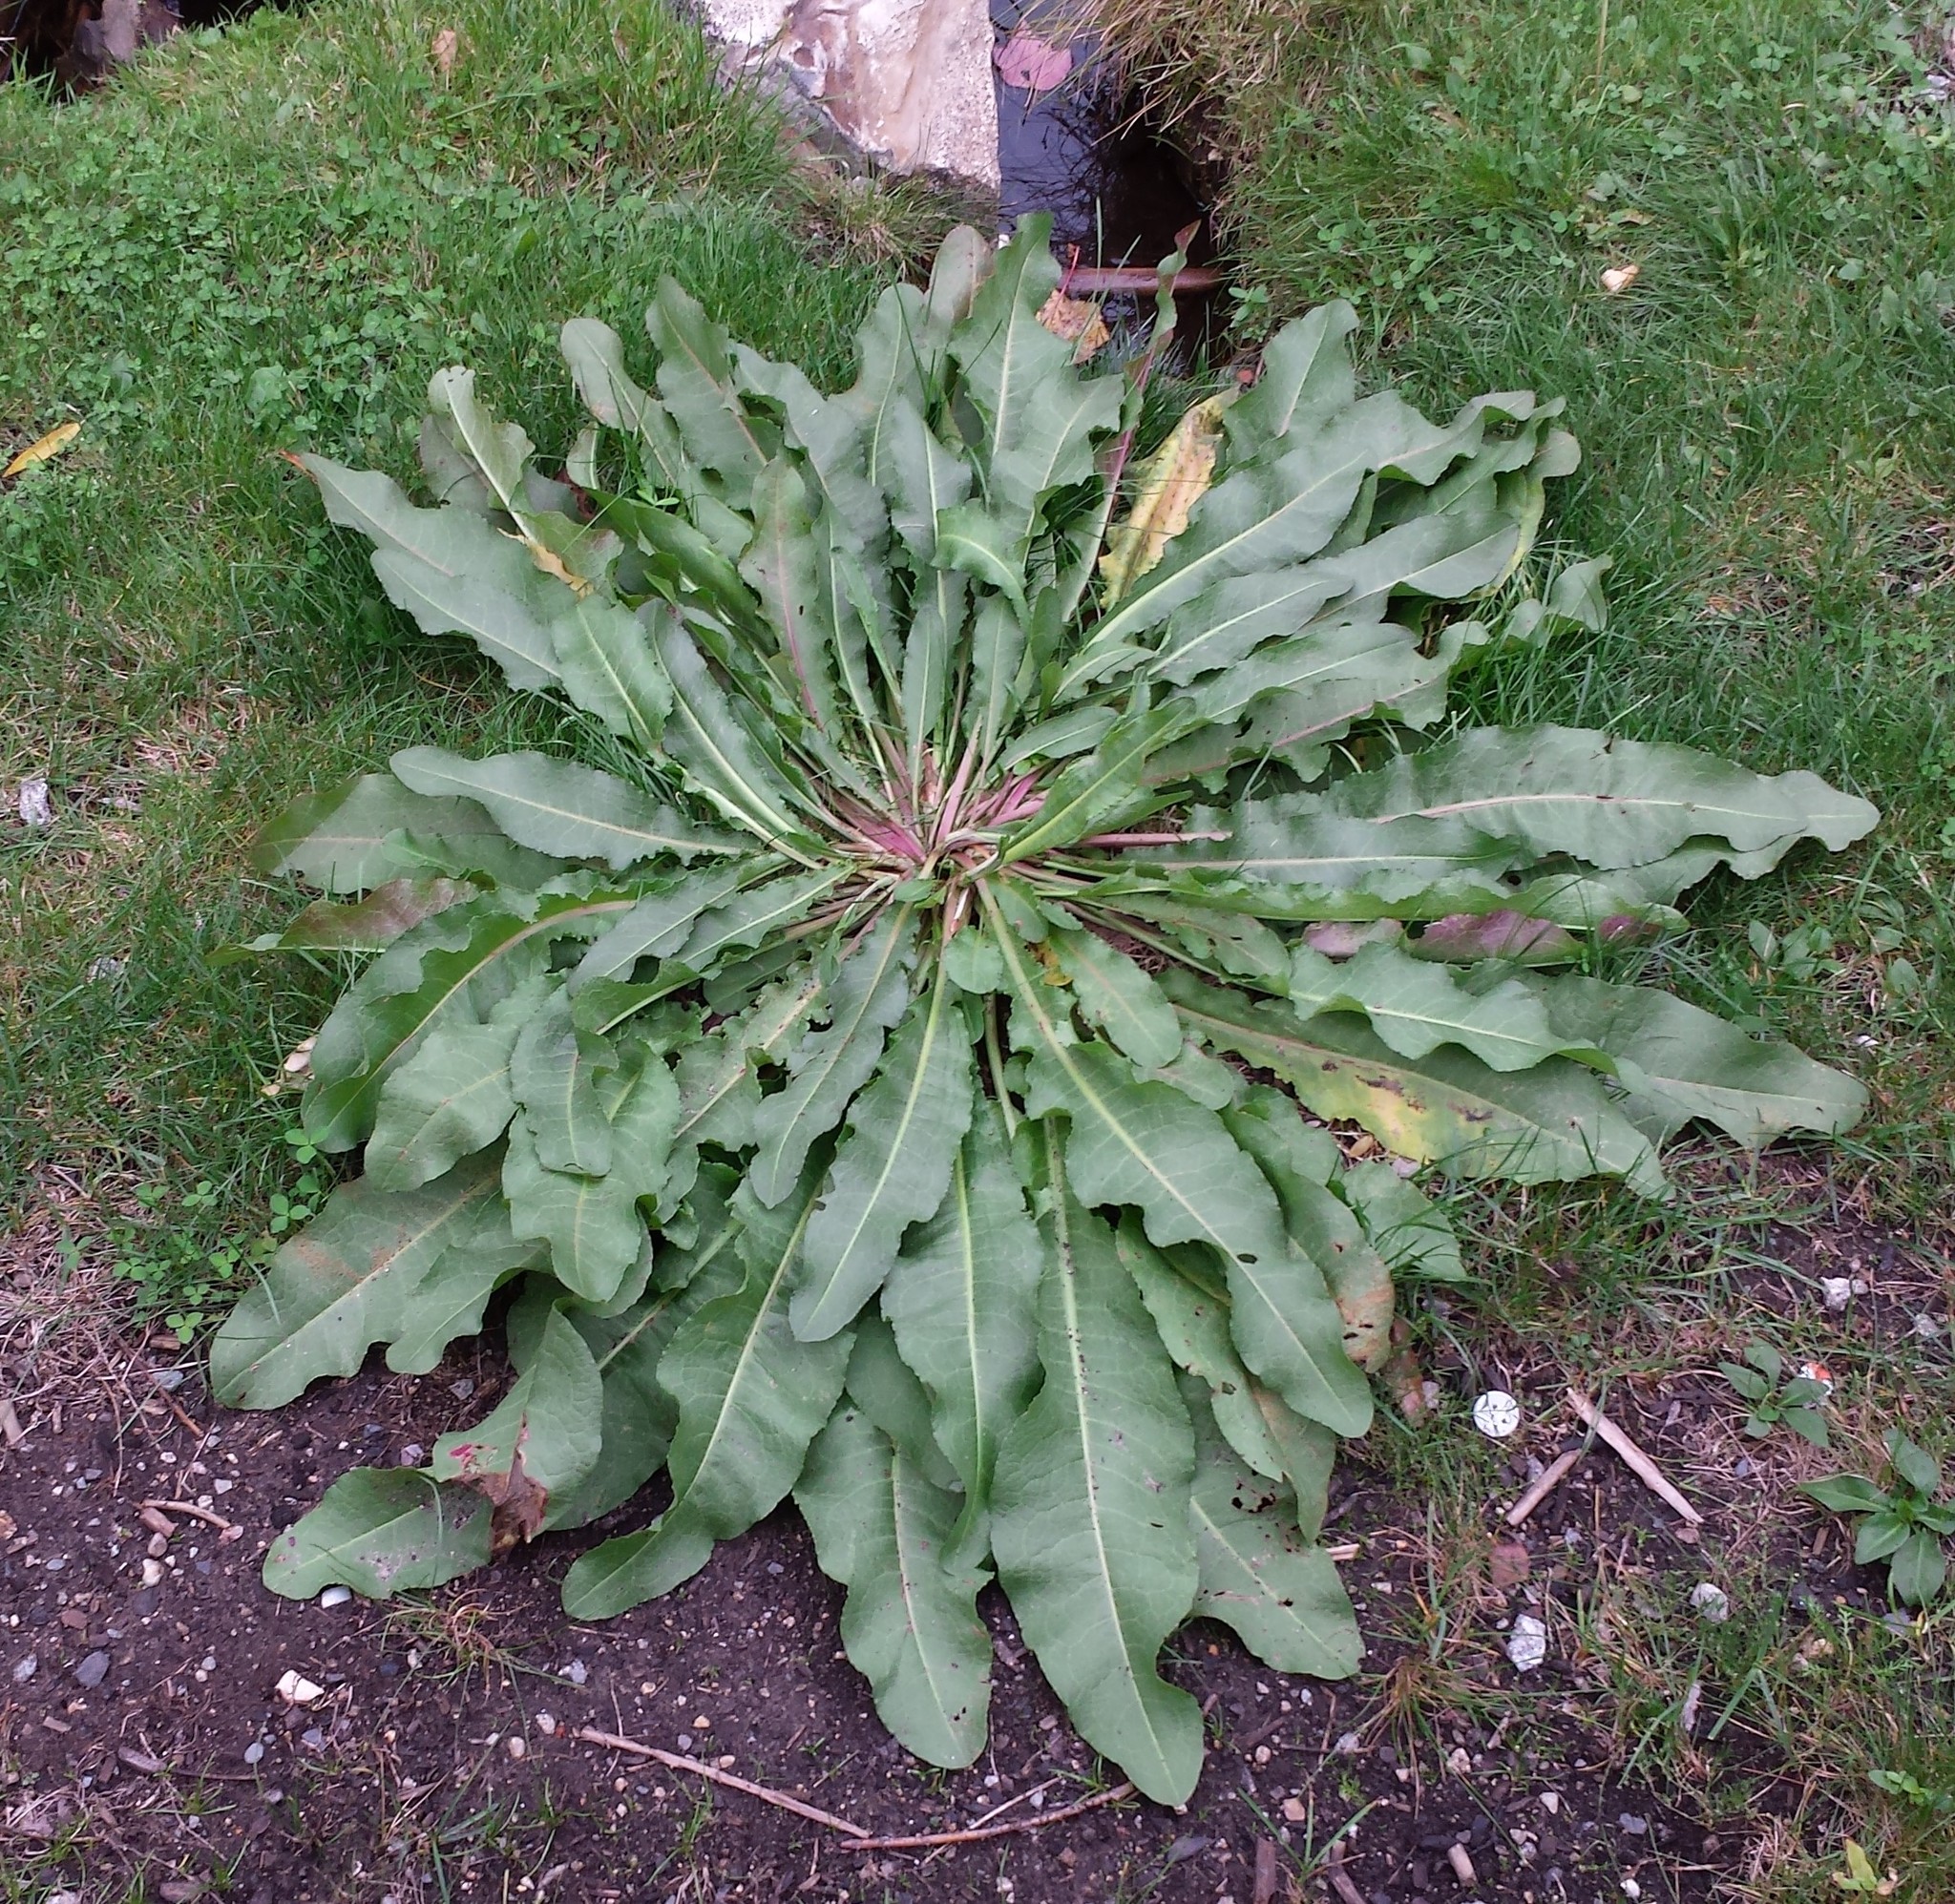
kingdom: Plantae
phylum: Tracheophyta
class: Magnoliopsida
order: Caryophyllales
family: Polygonaceae
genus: Rumex
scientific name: Rumex crispus
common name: Curled dock
